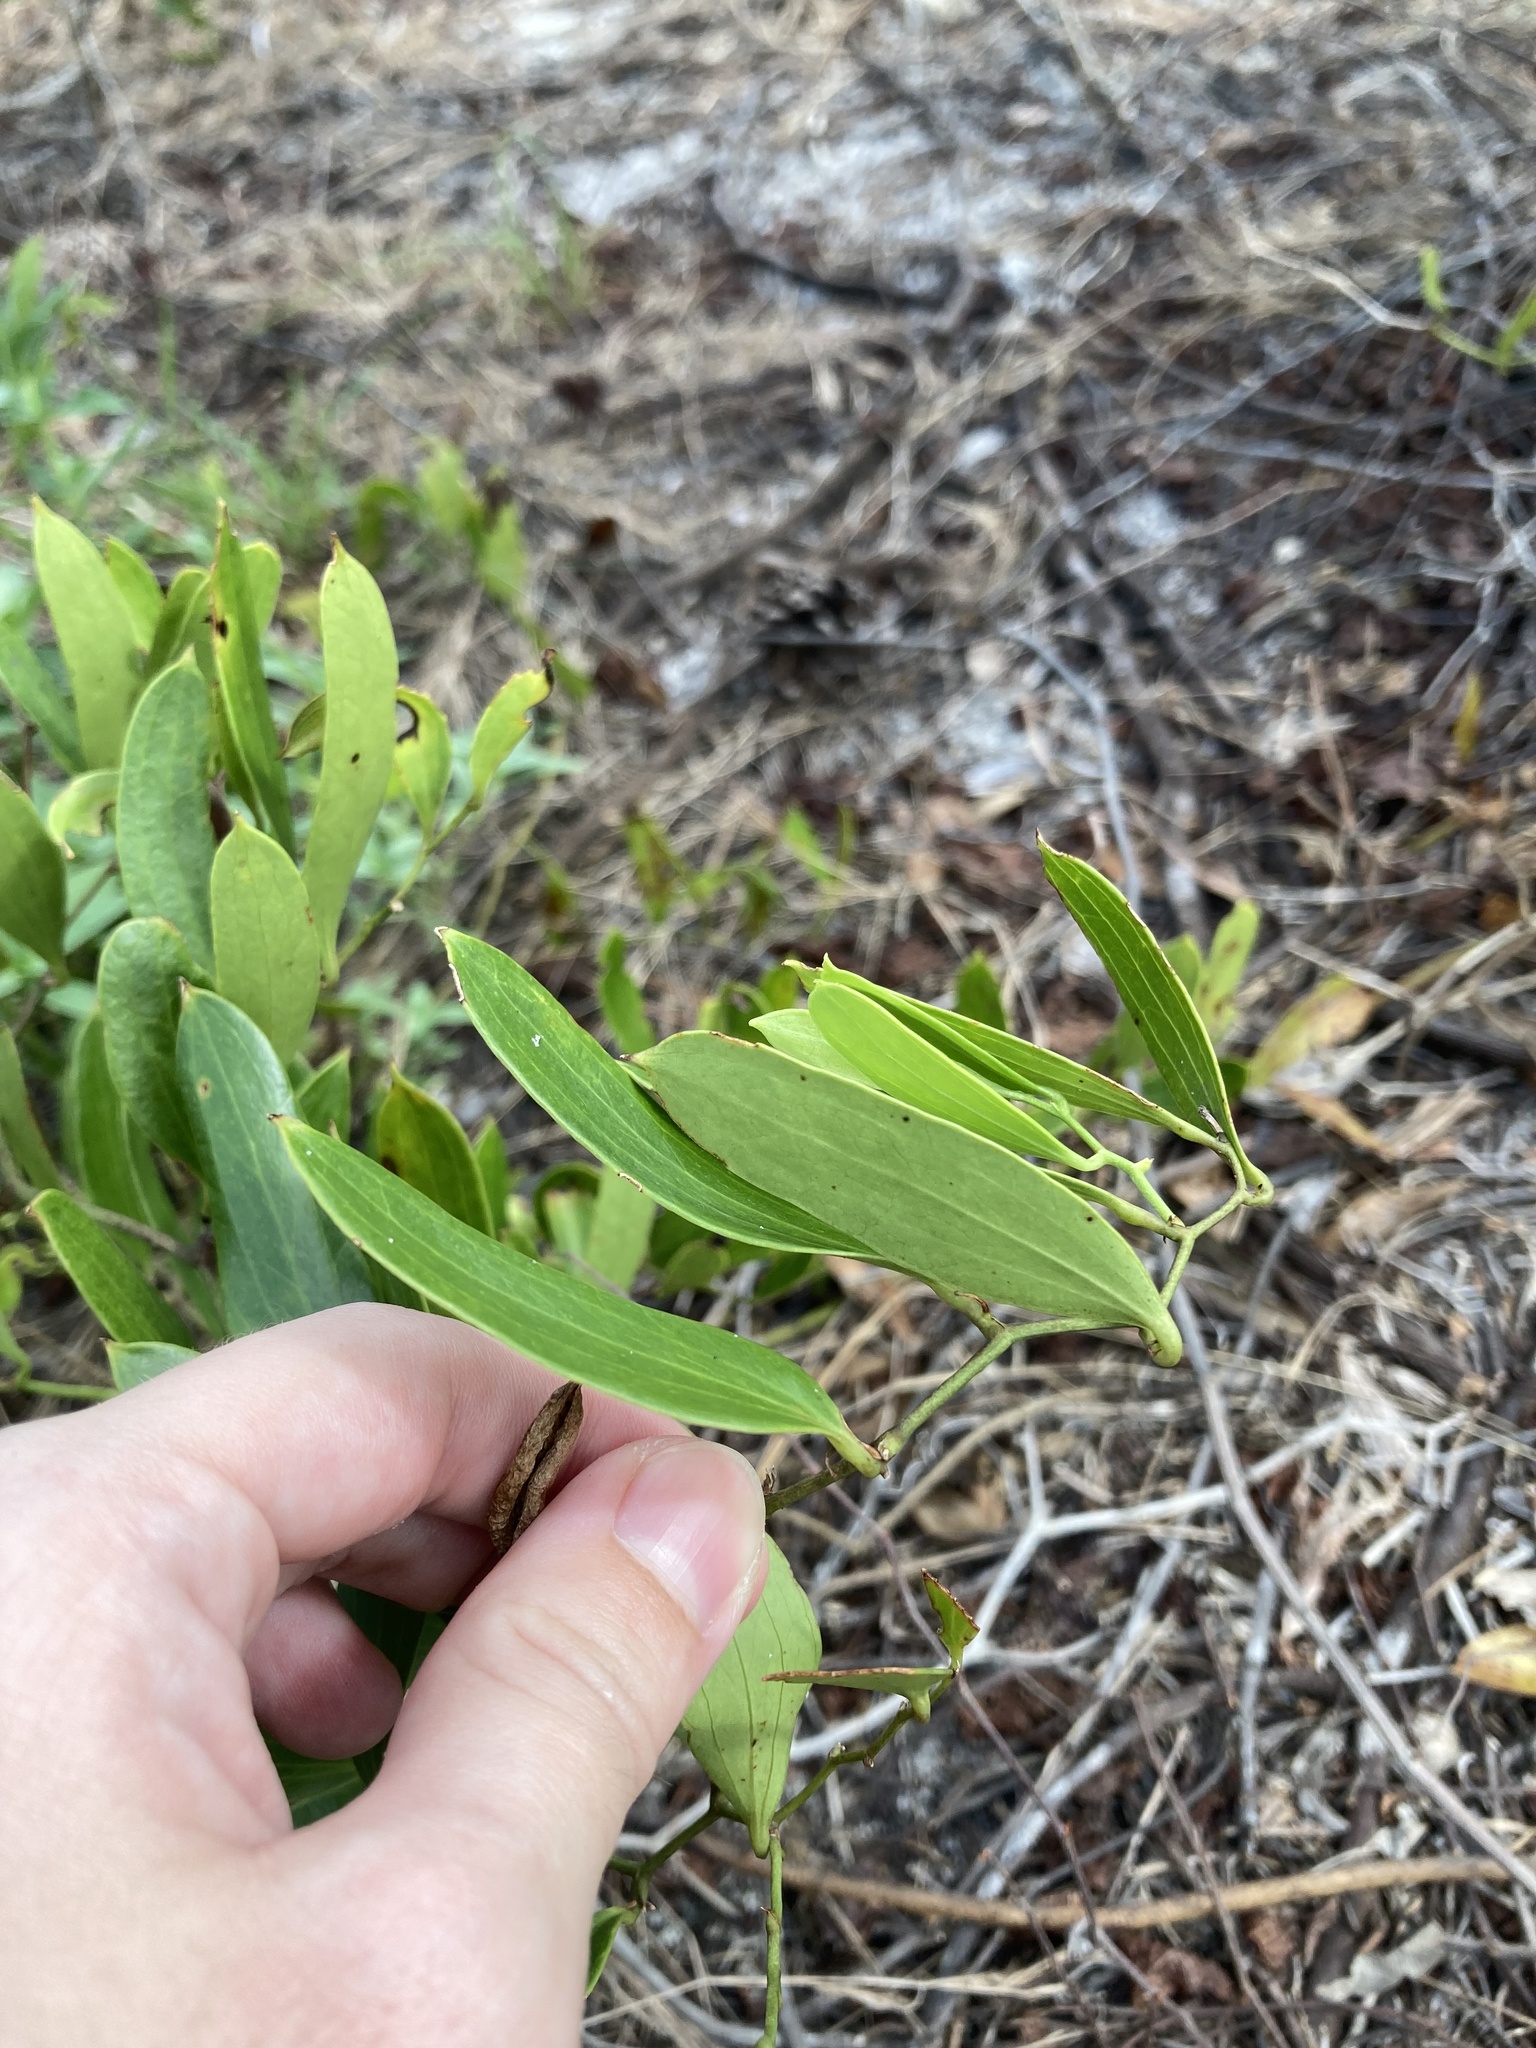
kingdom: Plantae
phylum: Tracheophyta
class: Liliopsida
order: Liliales
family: Smilacaceae
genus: Smilax
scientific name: Smilax auriculata
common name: Wild bamboo
